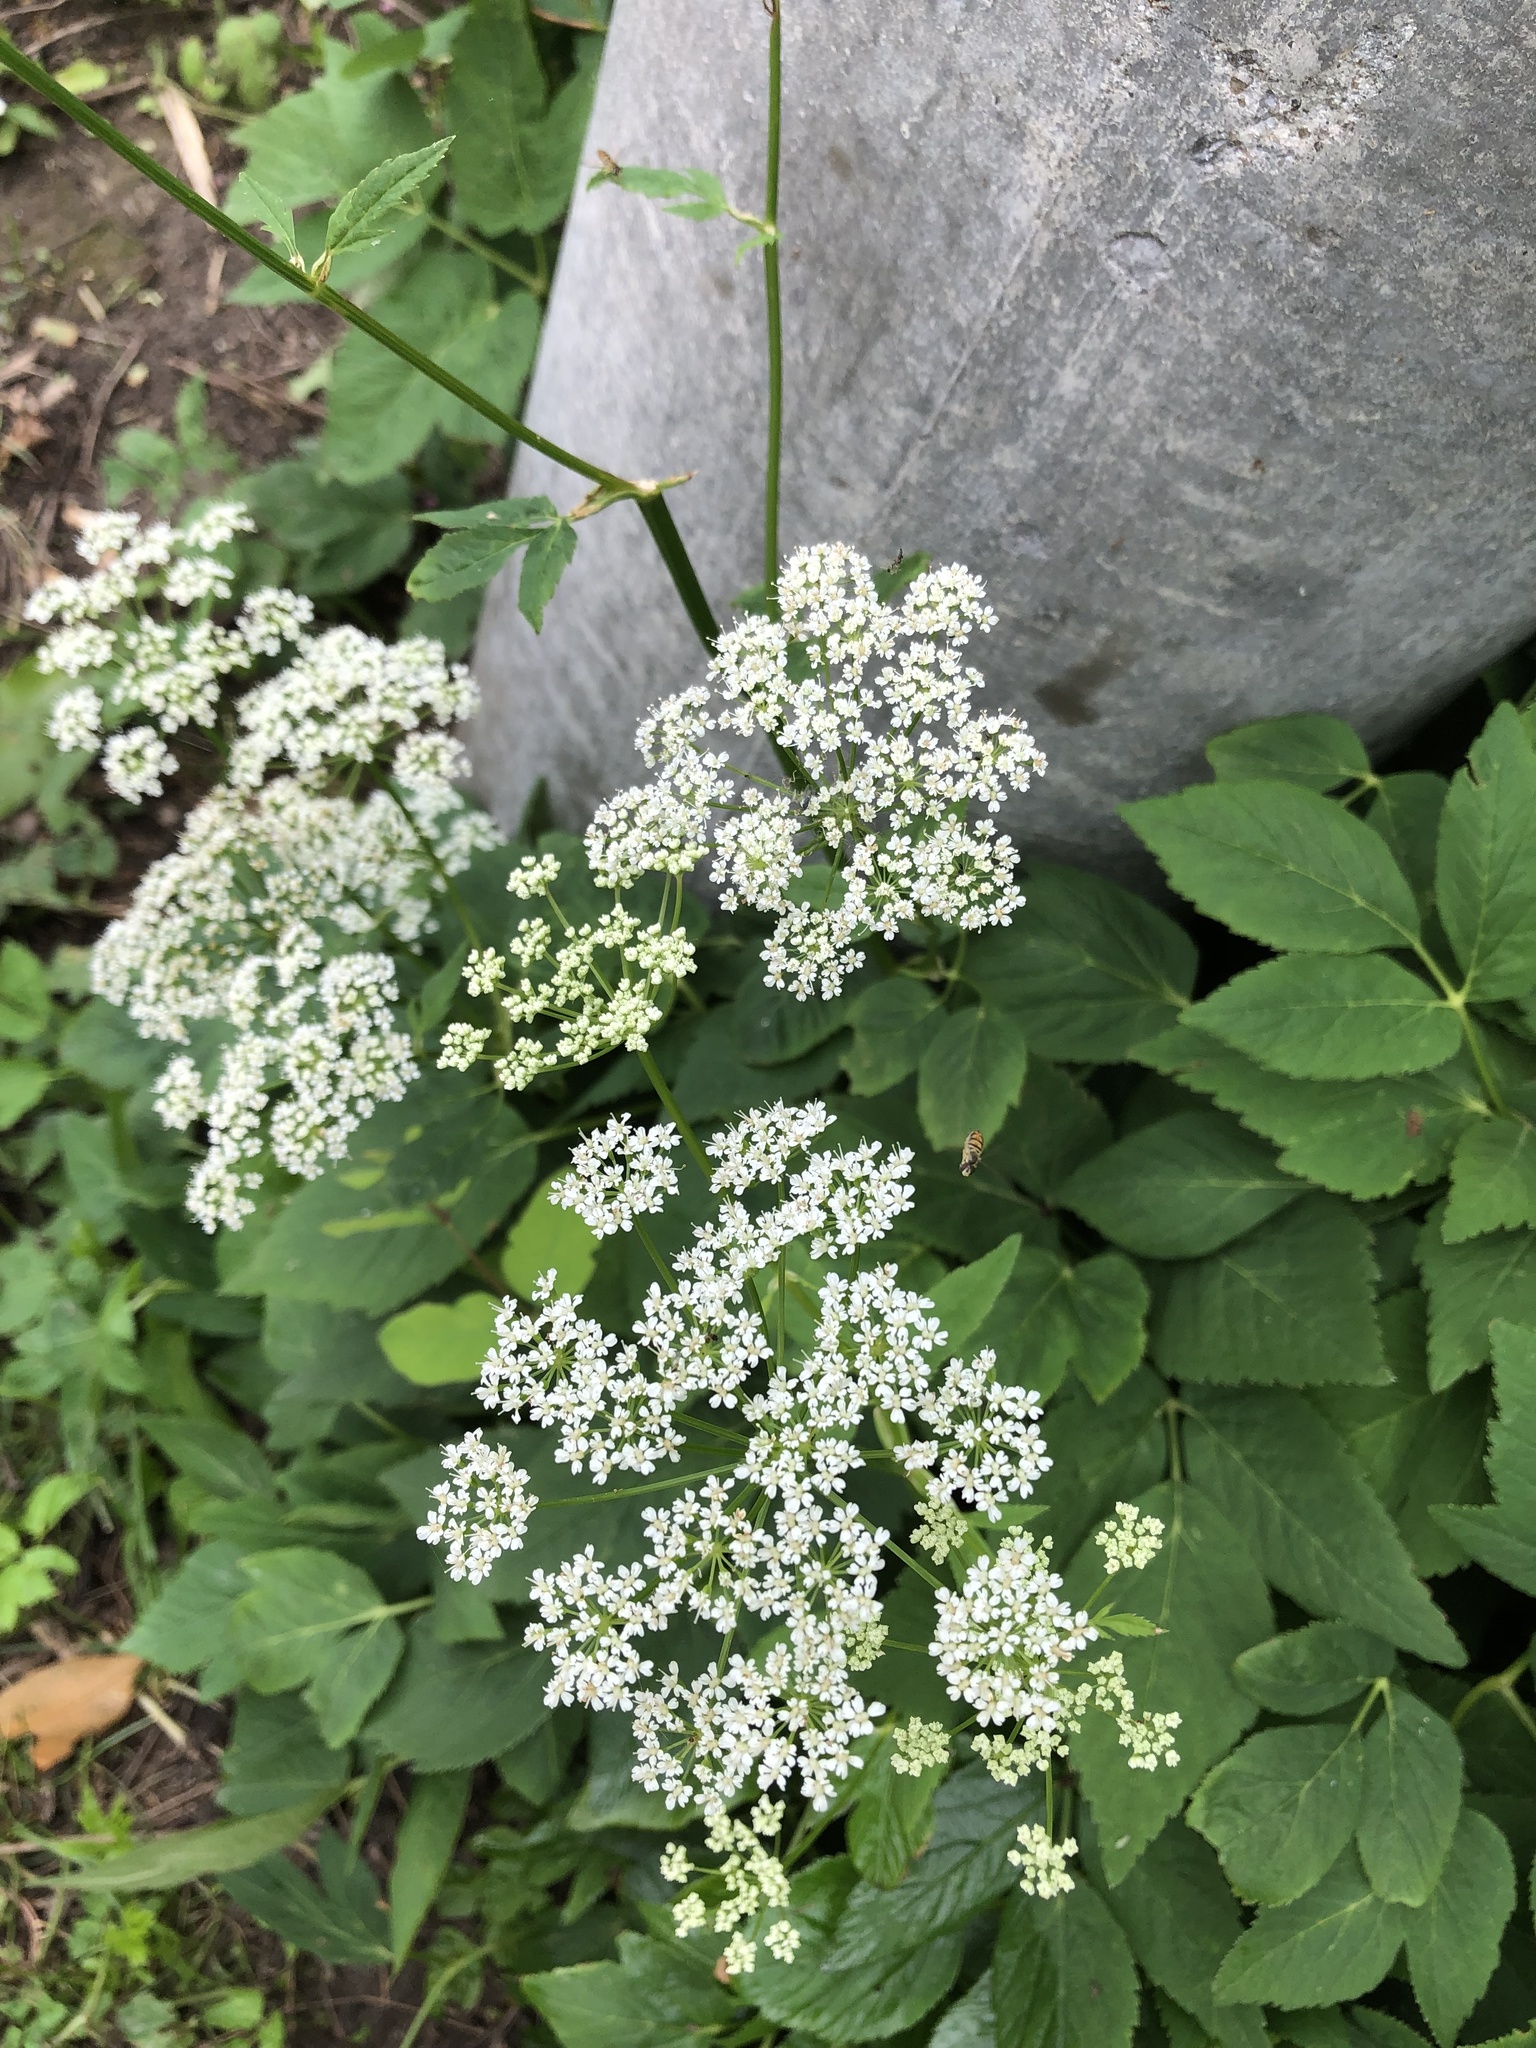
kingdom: Plantae
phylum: Tracheophyta
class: Magnoliopsida
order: Apiales
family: Apiaceae
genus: Aegopodium
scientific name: Aegopodium podagraria
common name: Ground-elder
